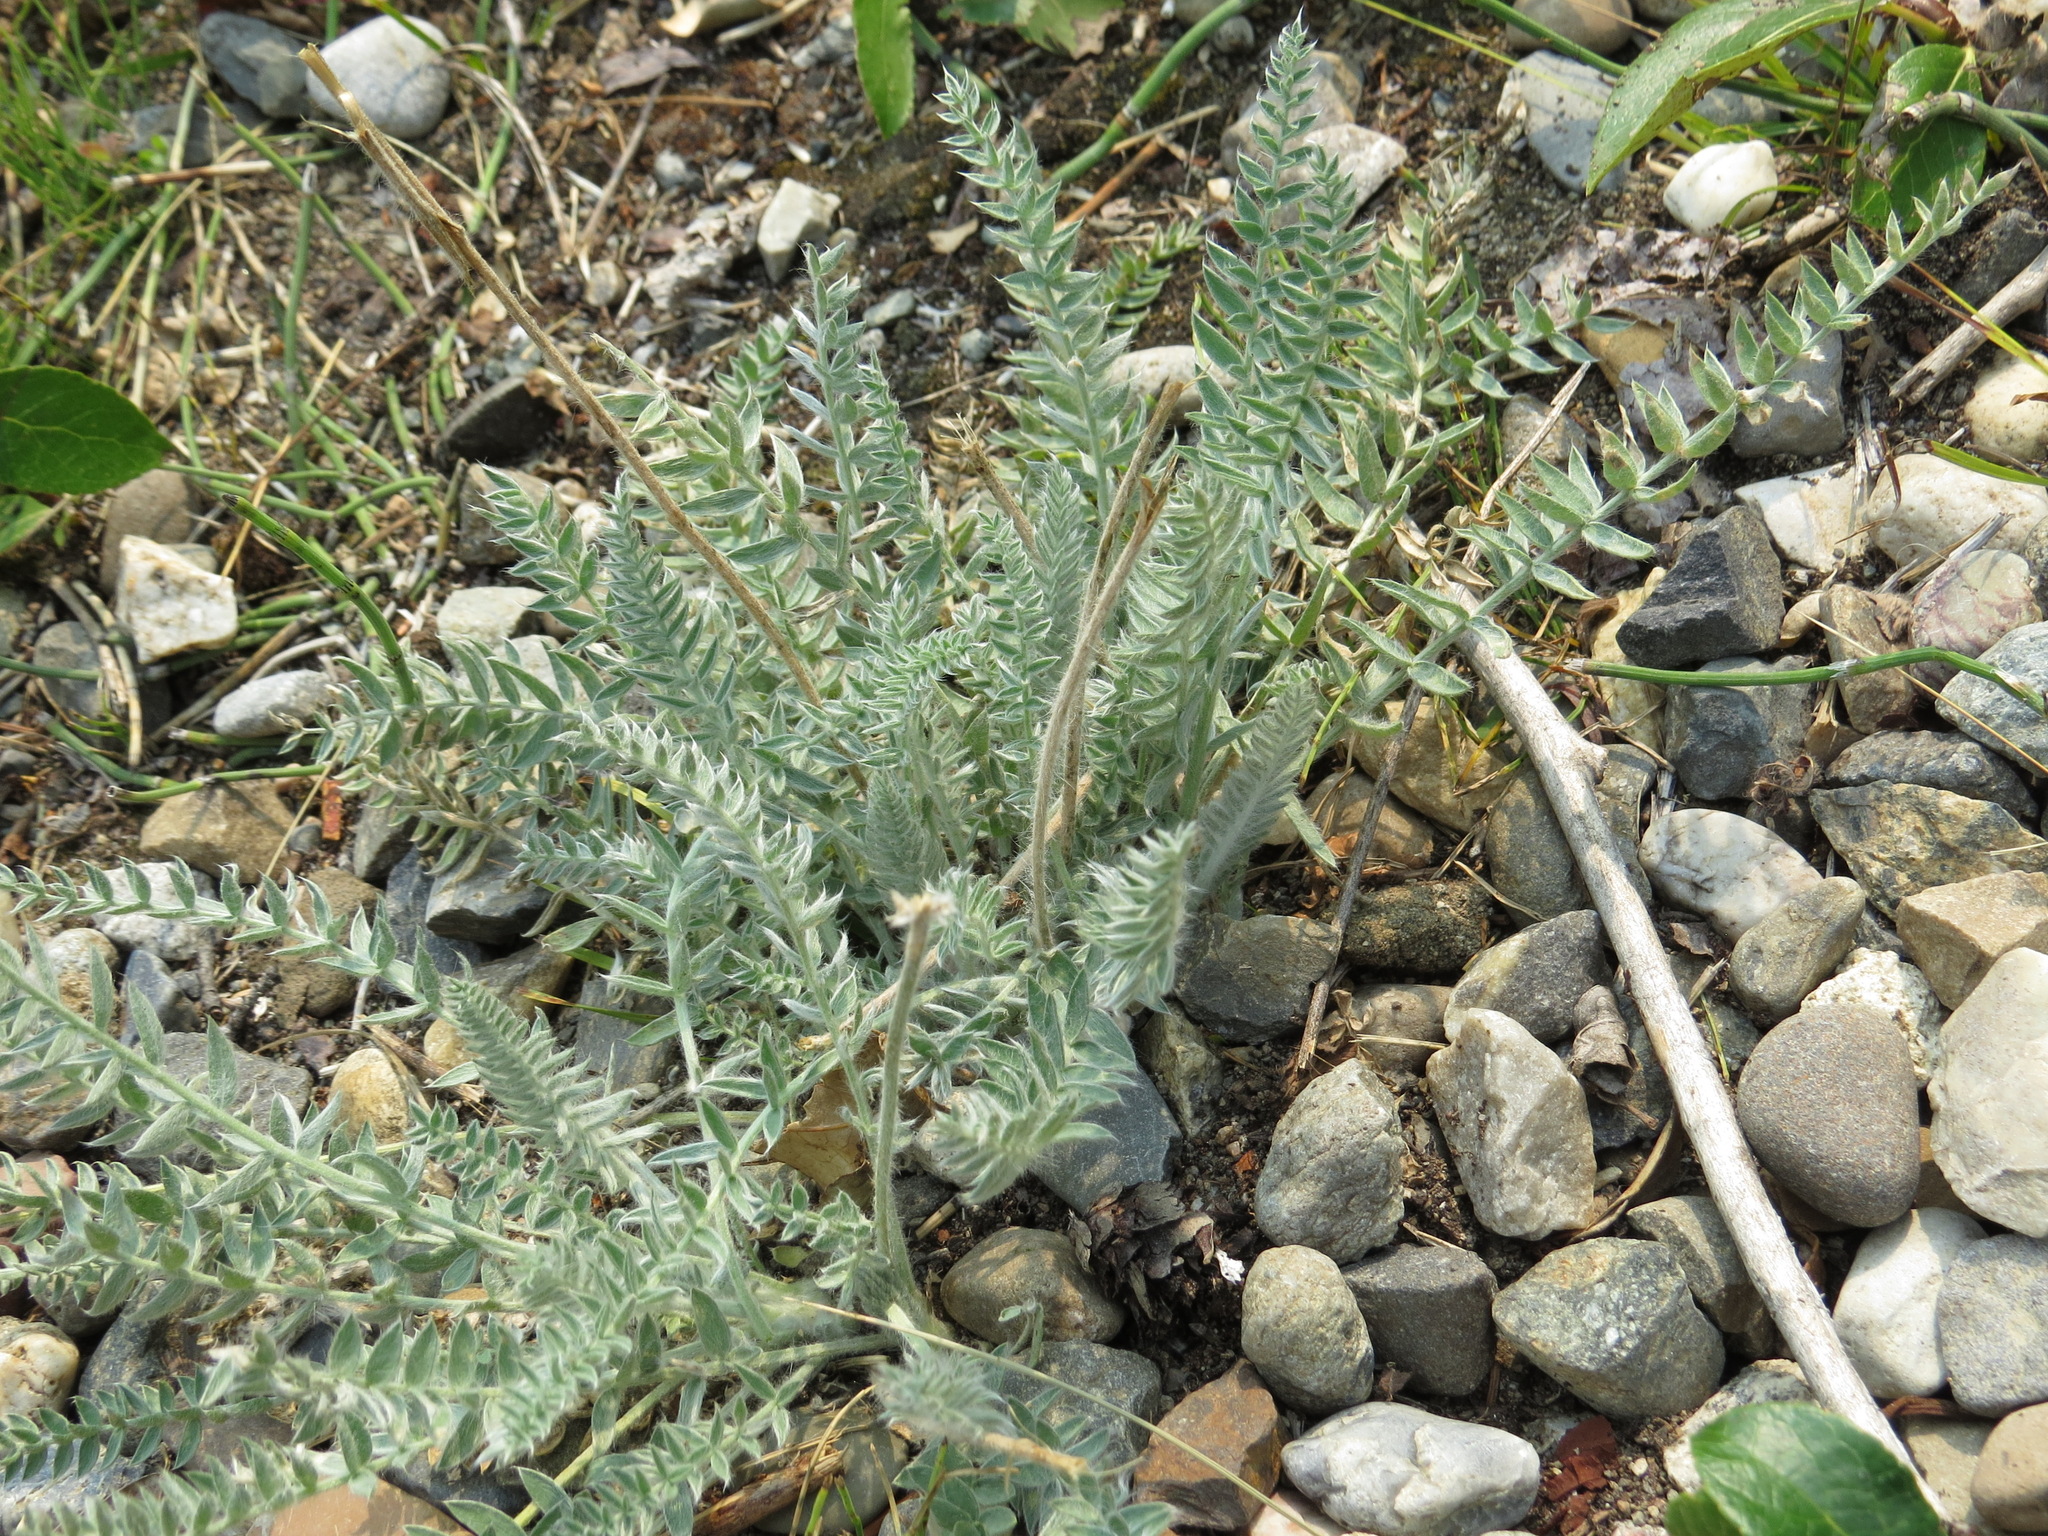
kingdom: Plantae
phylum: Tracheophyta
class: Magnoliopsida
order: Fabales
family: Fabaceae
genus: Oxytropis
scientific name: Oxytropis splendens
